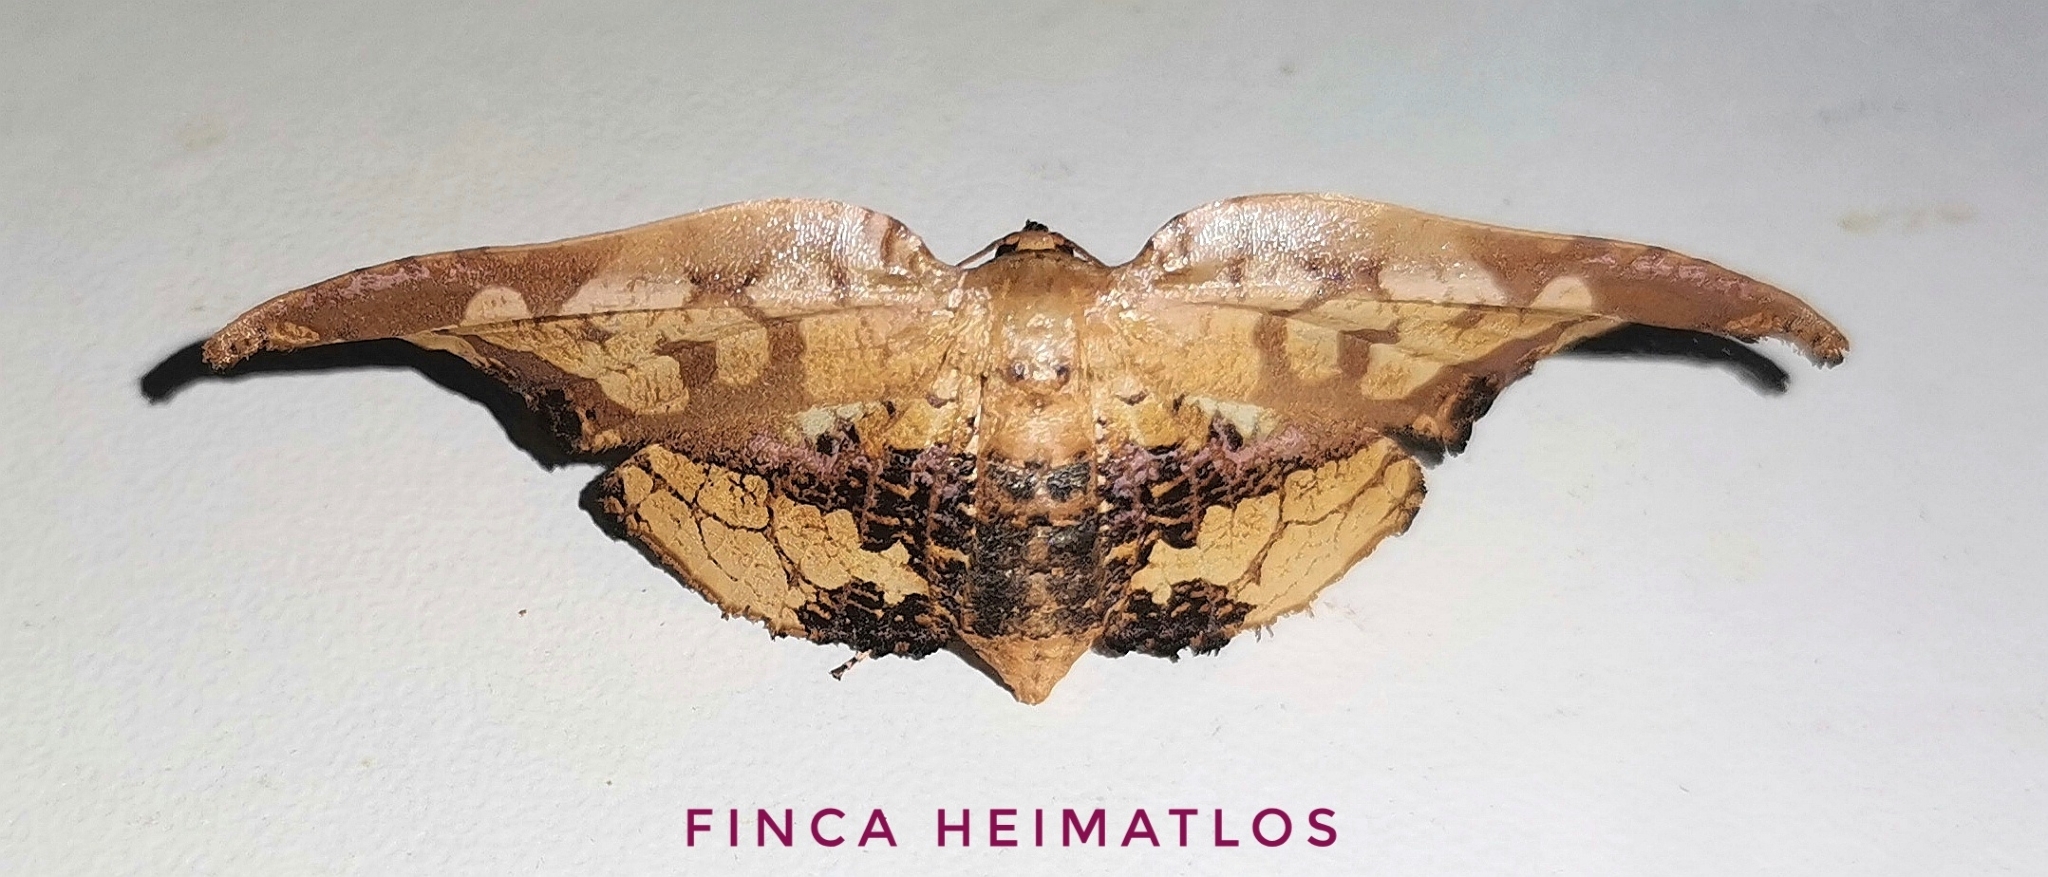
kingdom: Animalia
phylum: Arthropoda
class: Insecta
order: Lepidoptera
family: Thyrididae
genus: Draconia
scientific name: Draconia stenoptila
